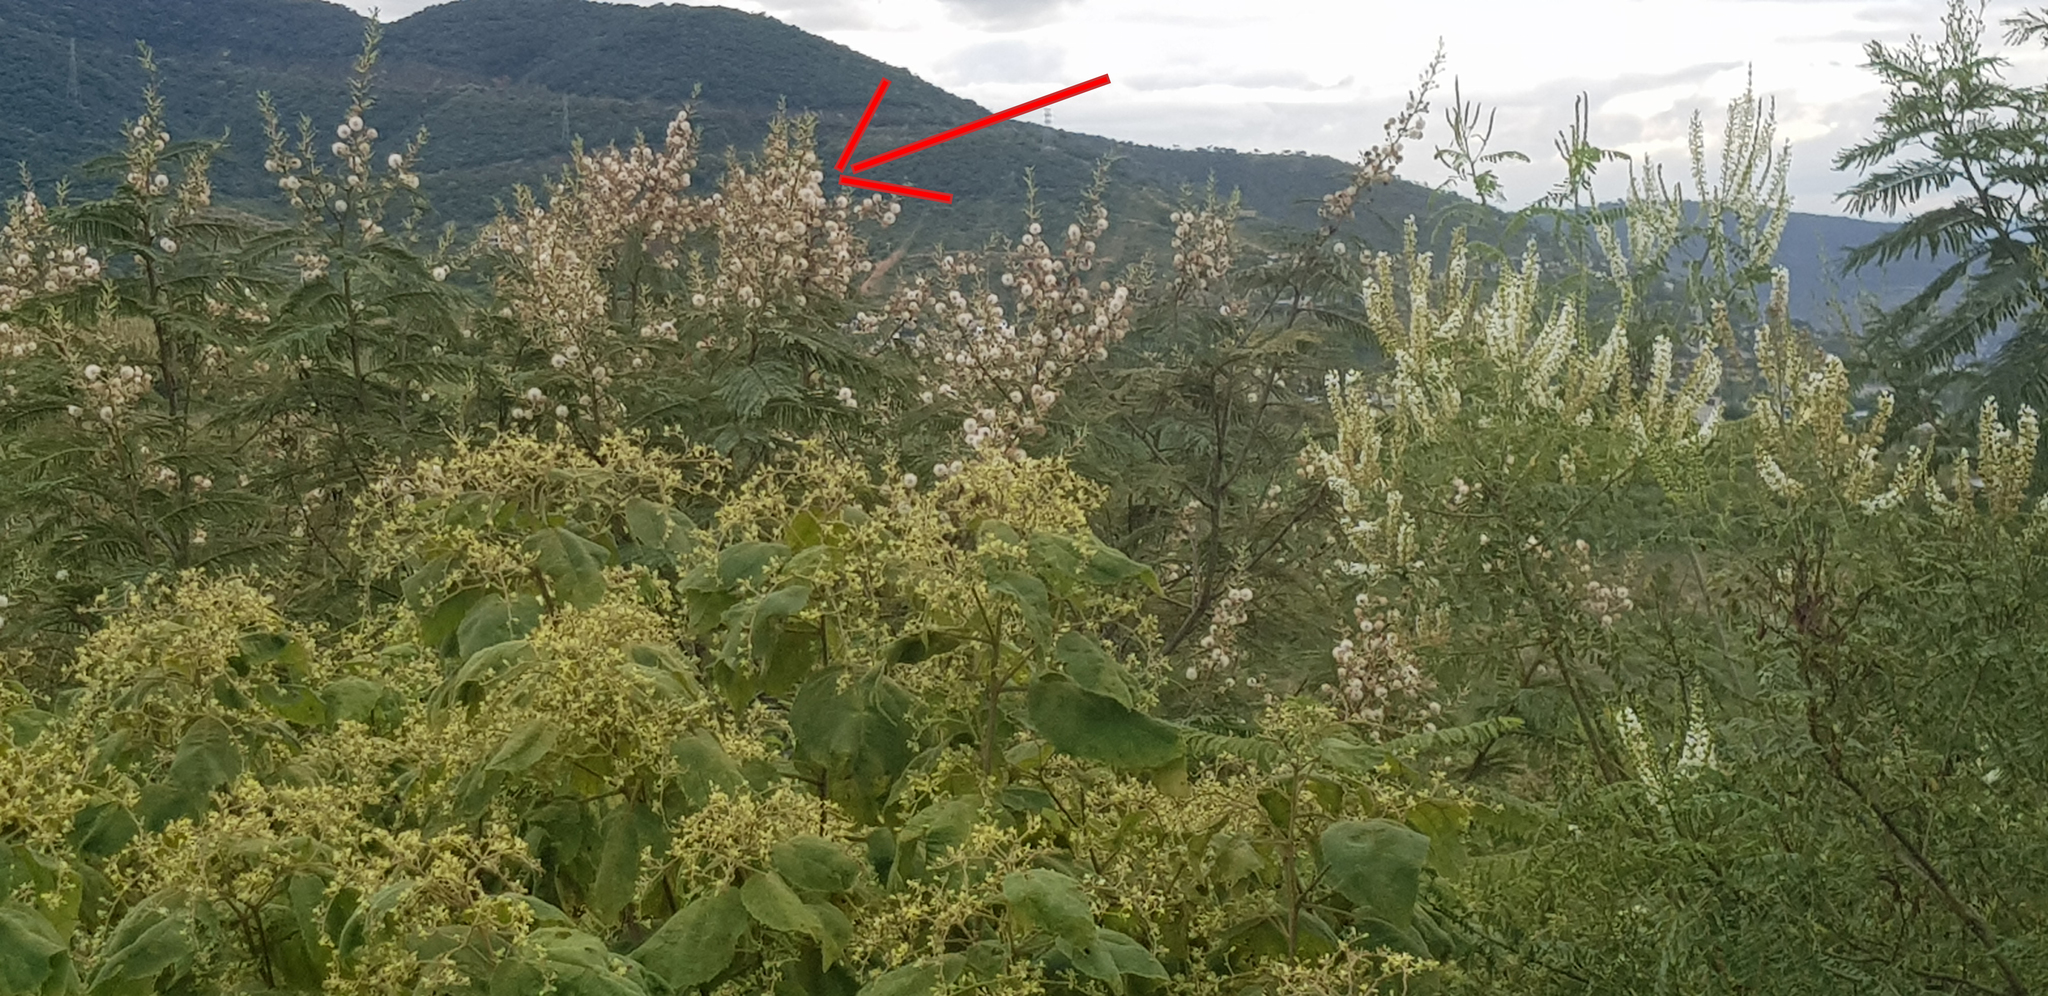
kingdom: Plantae
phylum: Tracheophyta
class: Magnoliopsida
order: Fabales
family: Fabaceae
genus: Leucaena
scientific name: Leucaena esculenta
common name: Guaje
